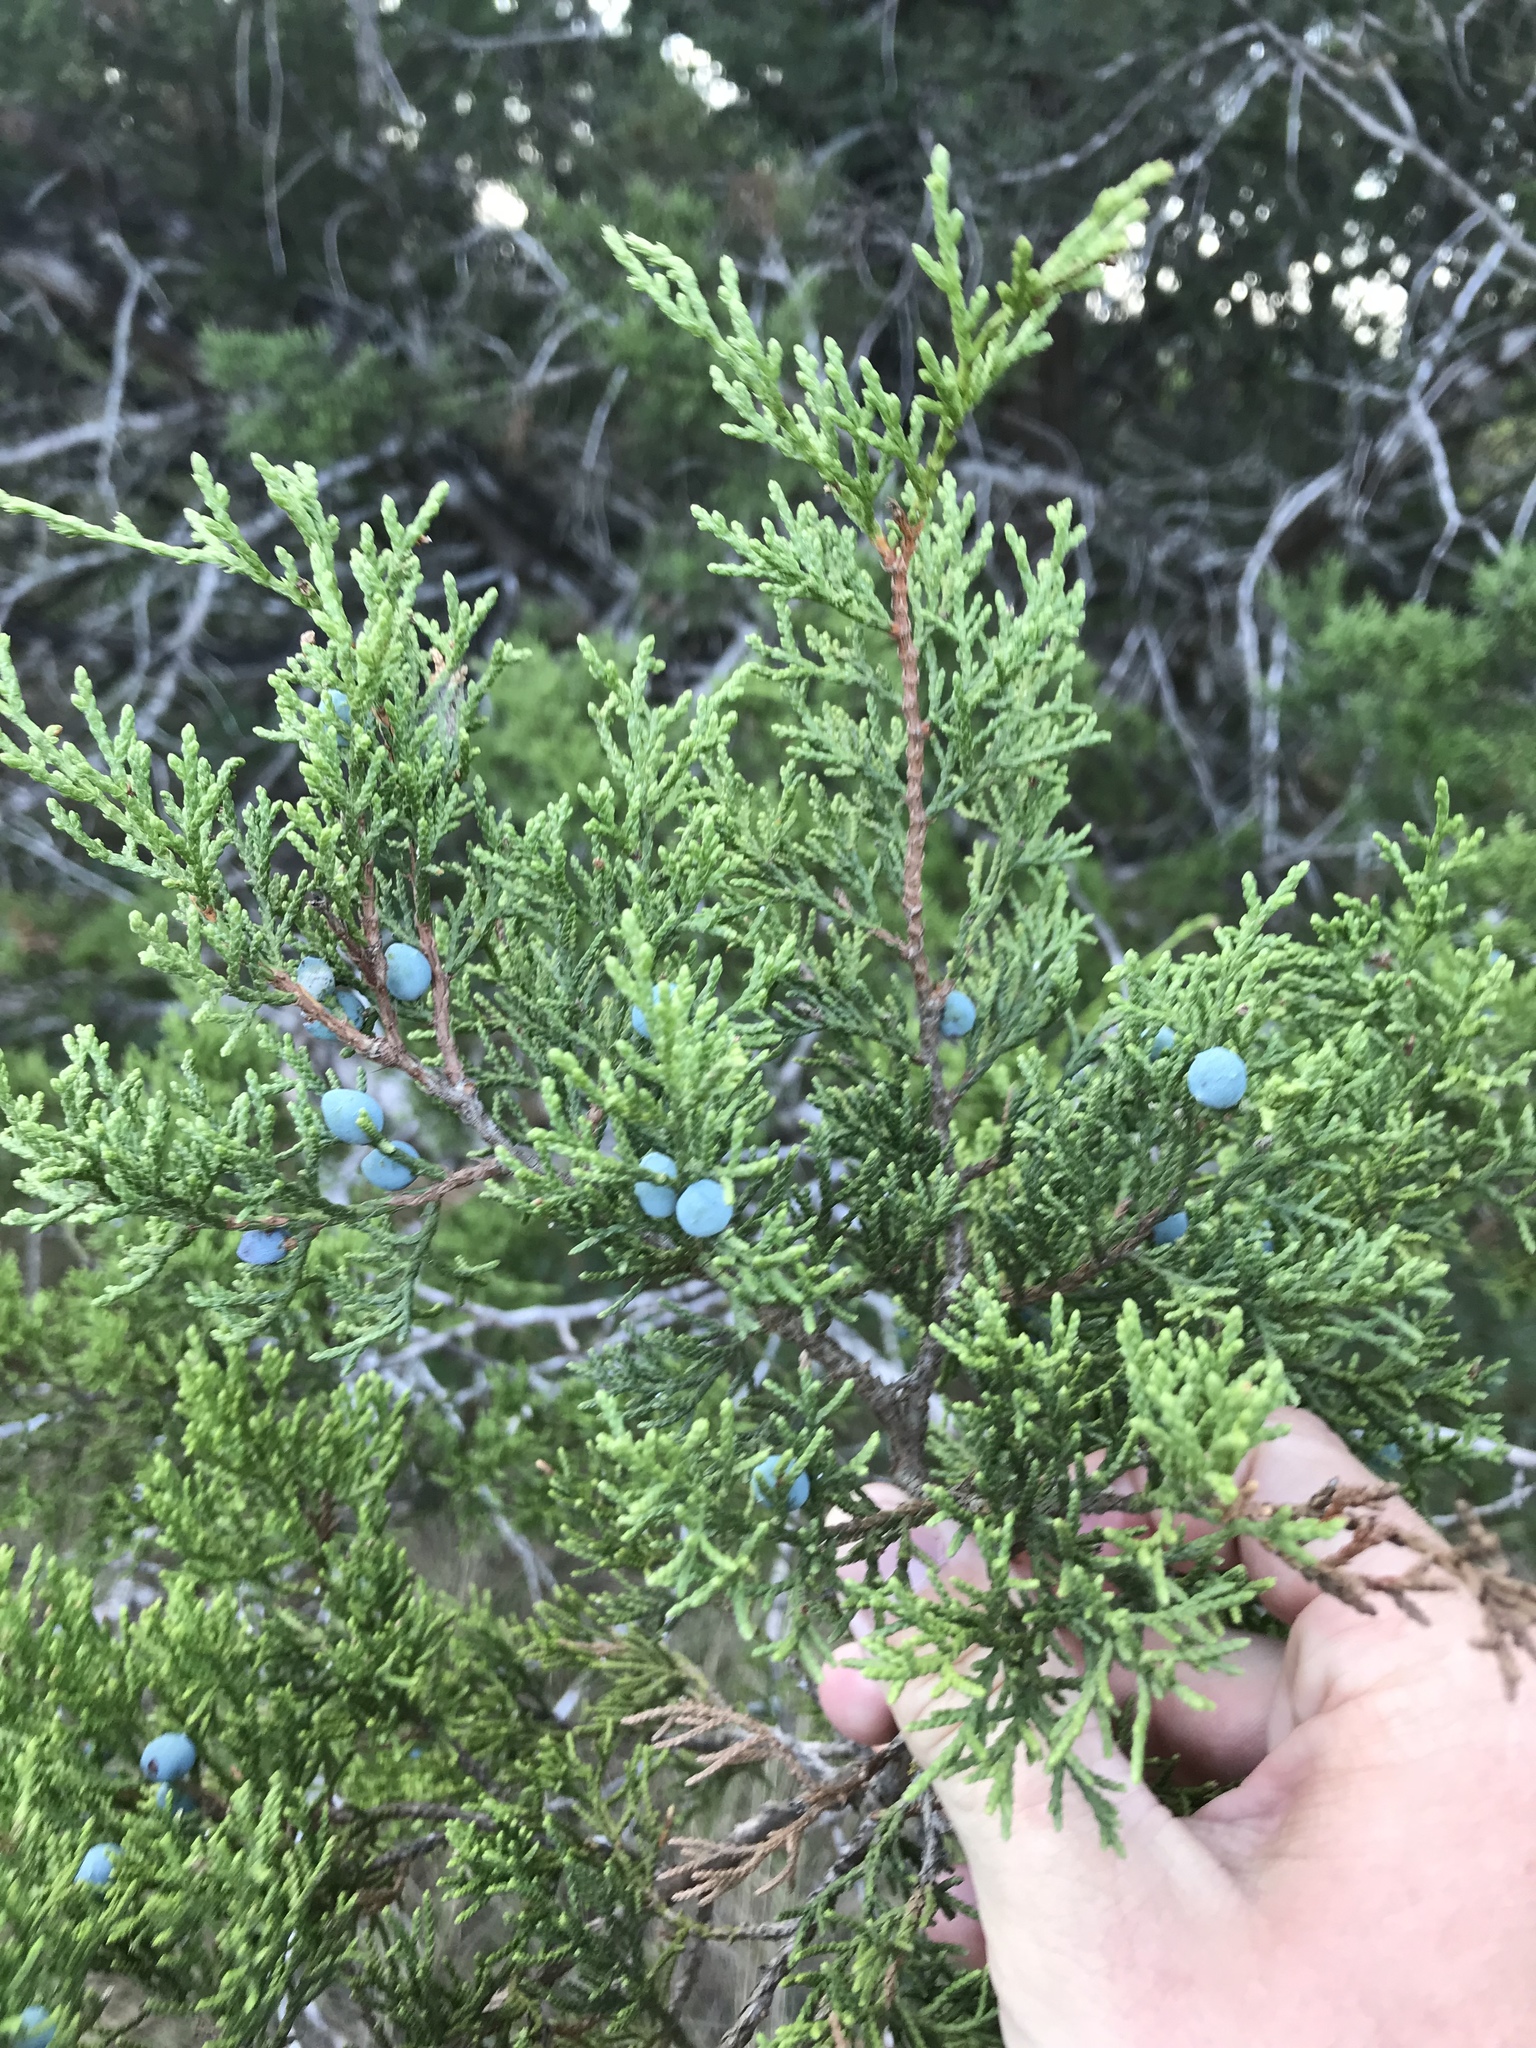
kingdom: Plantae
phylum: Tracheophyta
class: Pinopsida
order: Pinales
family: Cupressaceae
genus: Juniperus
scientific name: Juniperus ashei
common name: Mexican juniper
